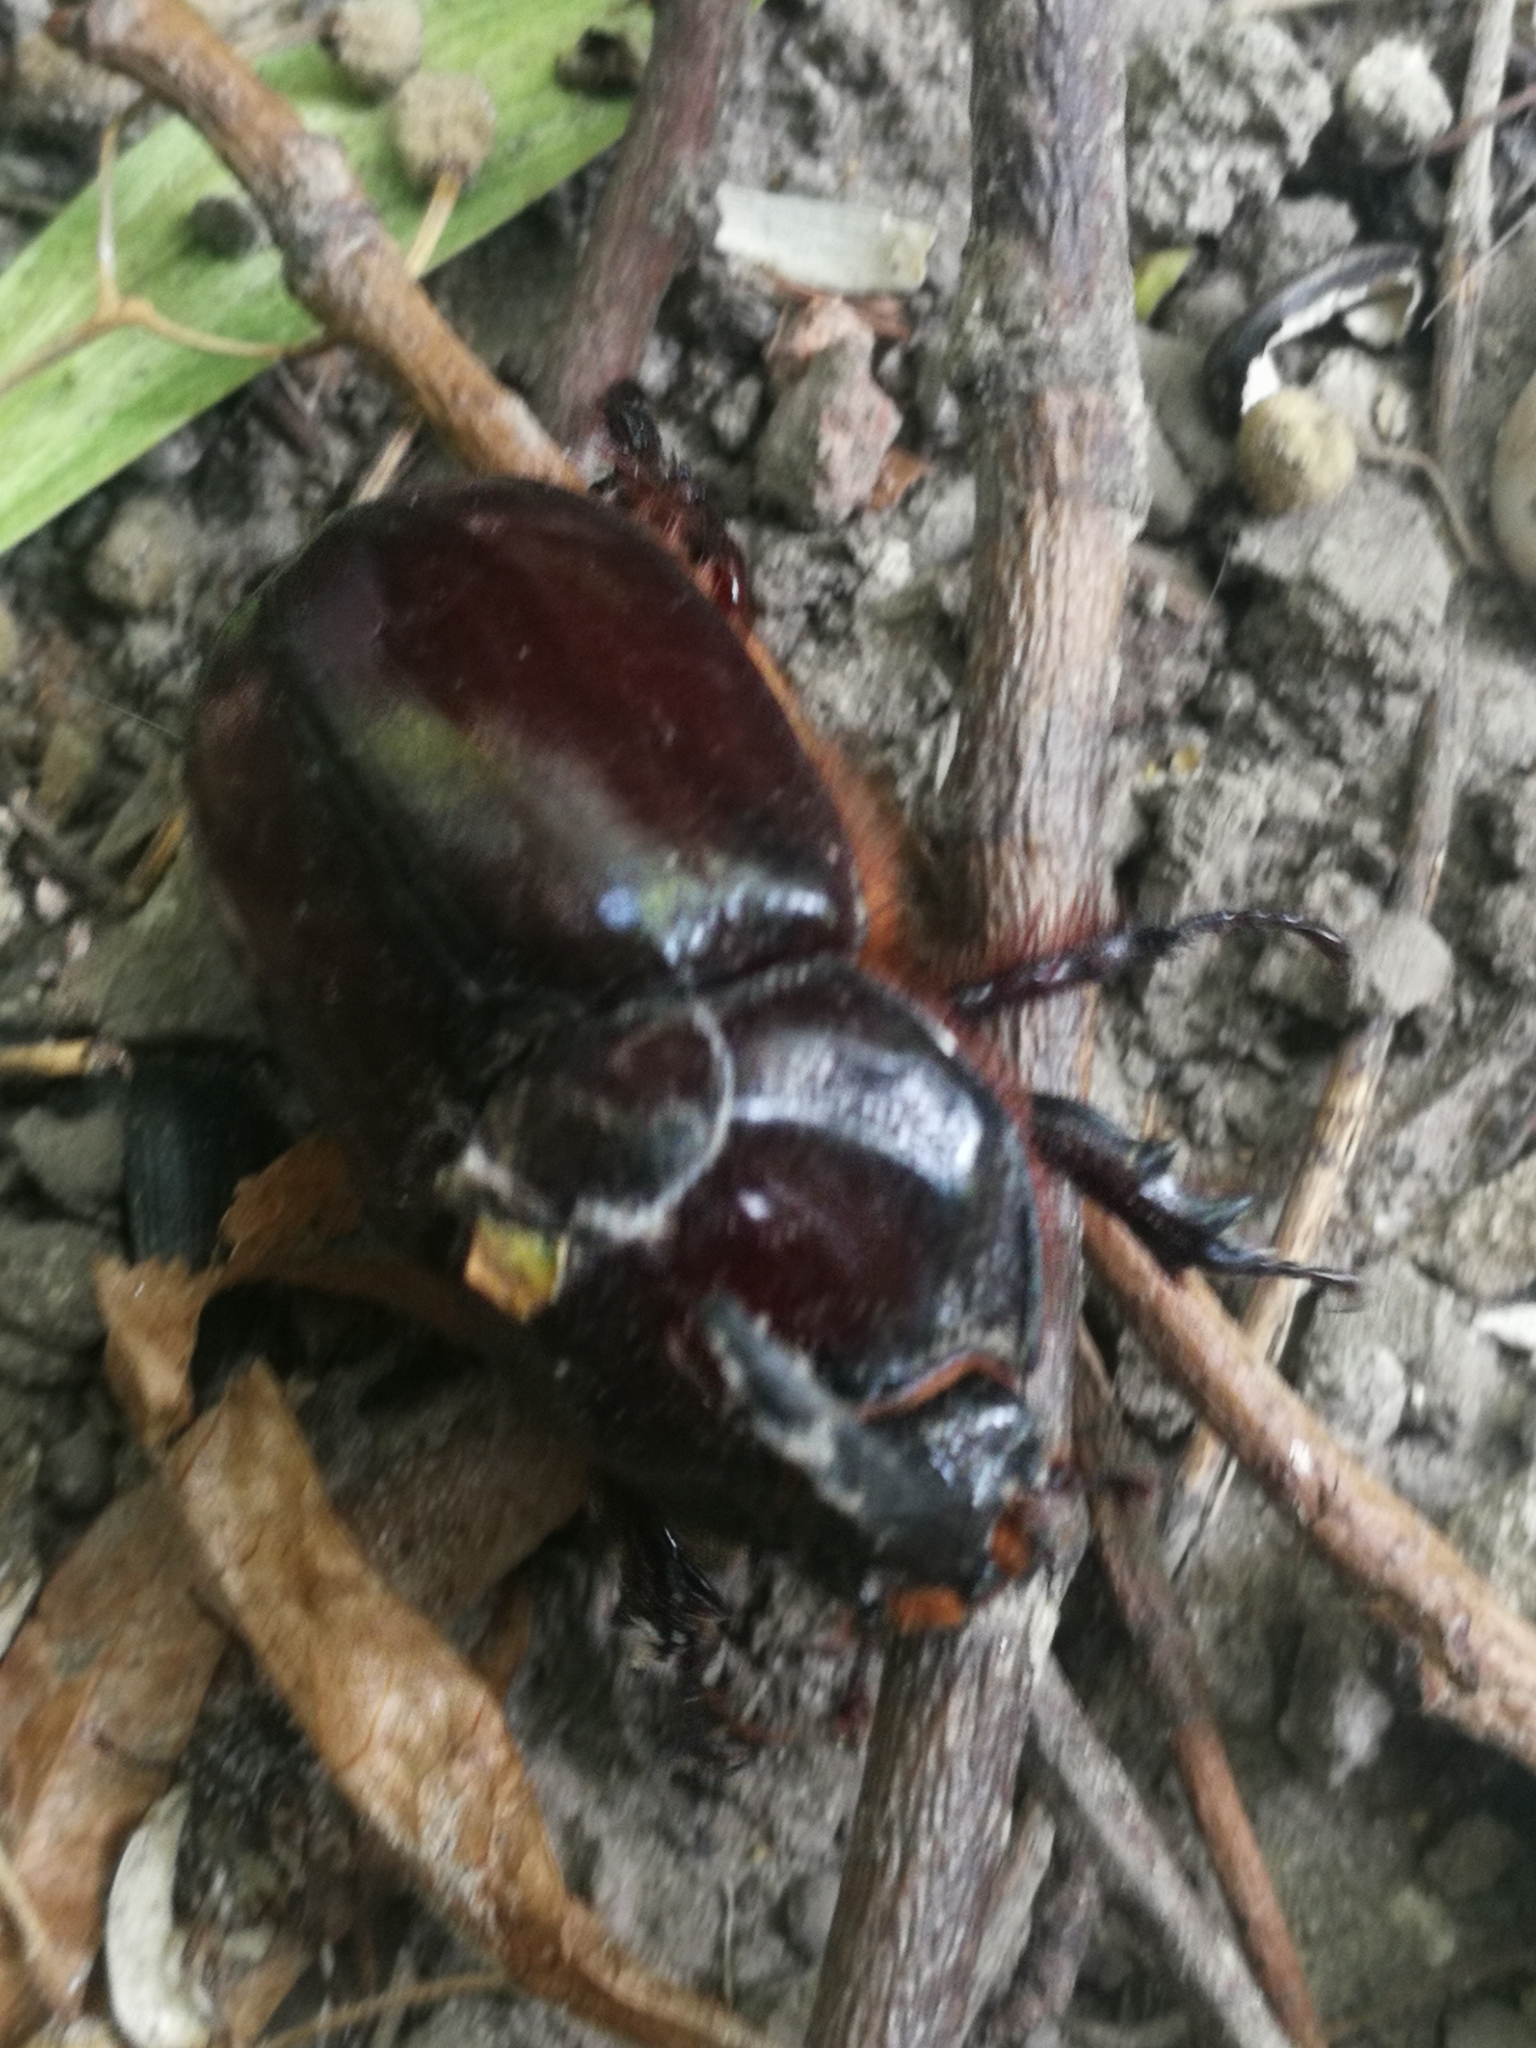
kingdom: Animalia
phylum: Arthropoda
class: Insecta
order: Coleoptera
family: Scarabaeidae
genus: Oryctes
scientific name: Oryctes nasicornis
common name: European rhinoceros beetle
